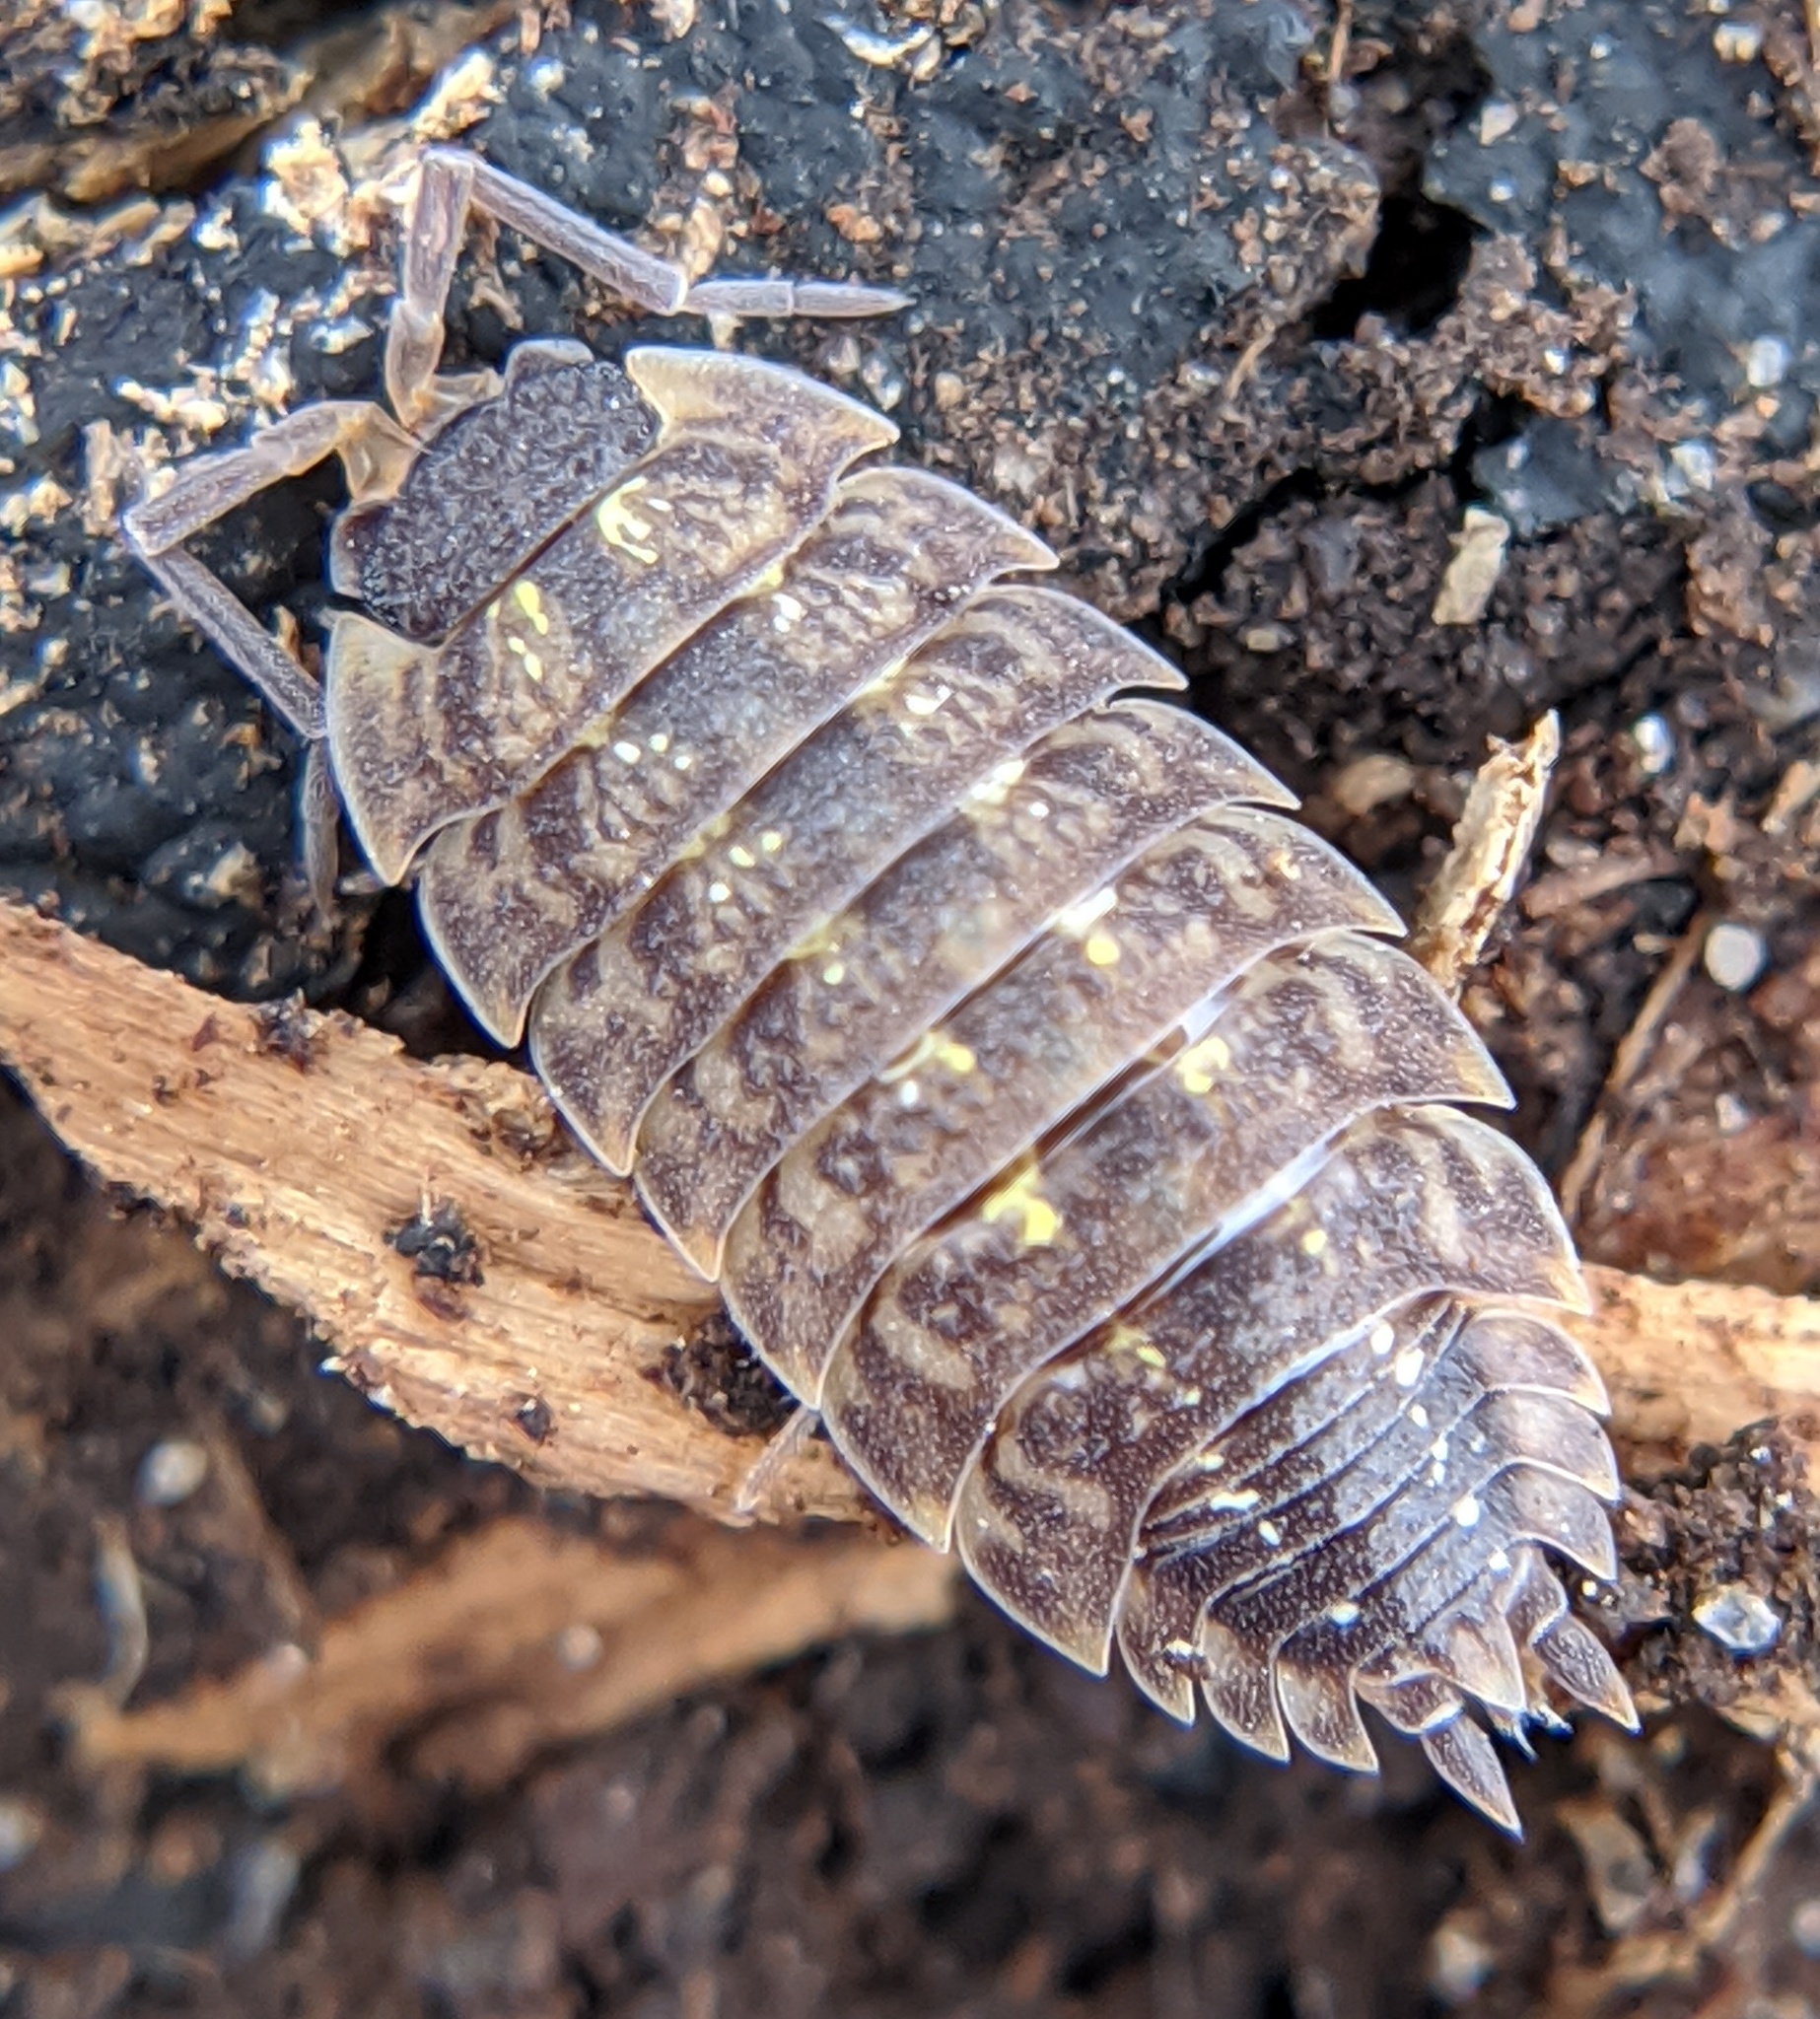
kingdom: Animalia
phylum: Arthropoda
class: Malacostraca
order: Isopoda
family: Porcellionidae
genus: Porcellio
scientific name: Porcellio spinicornis
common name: Painted woodlouse
